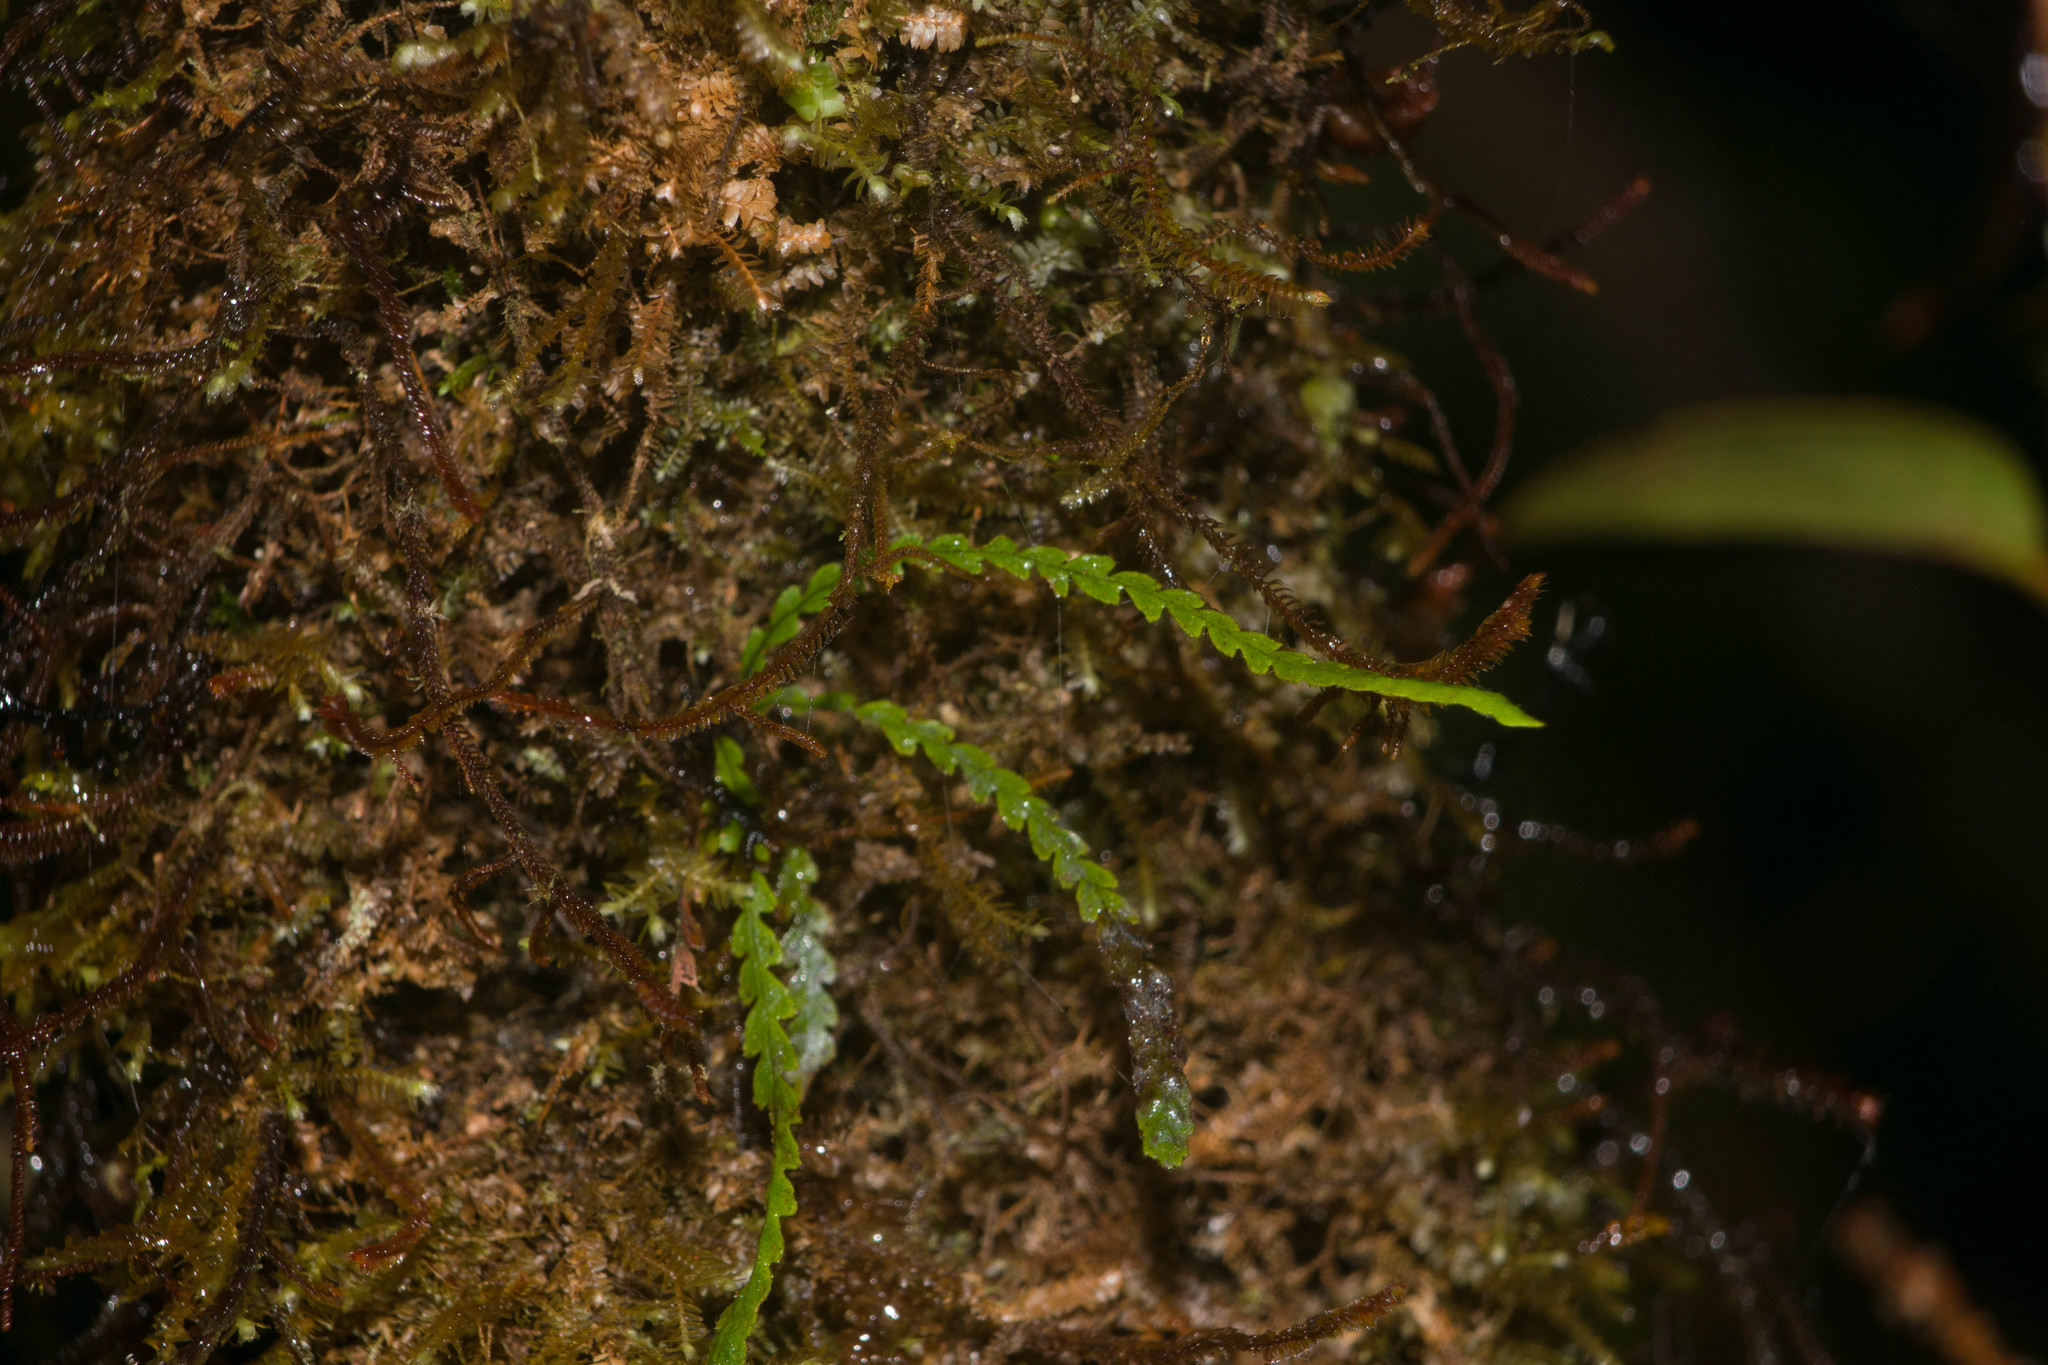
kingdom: Plantae
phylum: Tracheophyta
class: Polypodiopsida
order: Polypodiales
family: Polypodiaceae
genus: Stenogrammitis
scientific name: Stenogrammitis saffordii
